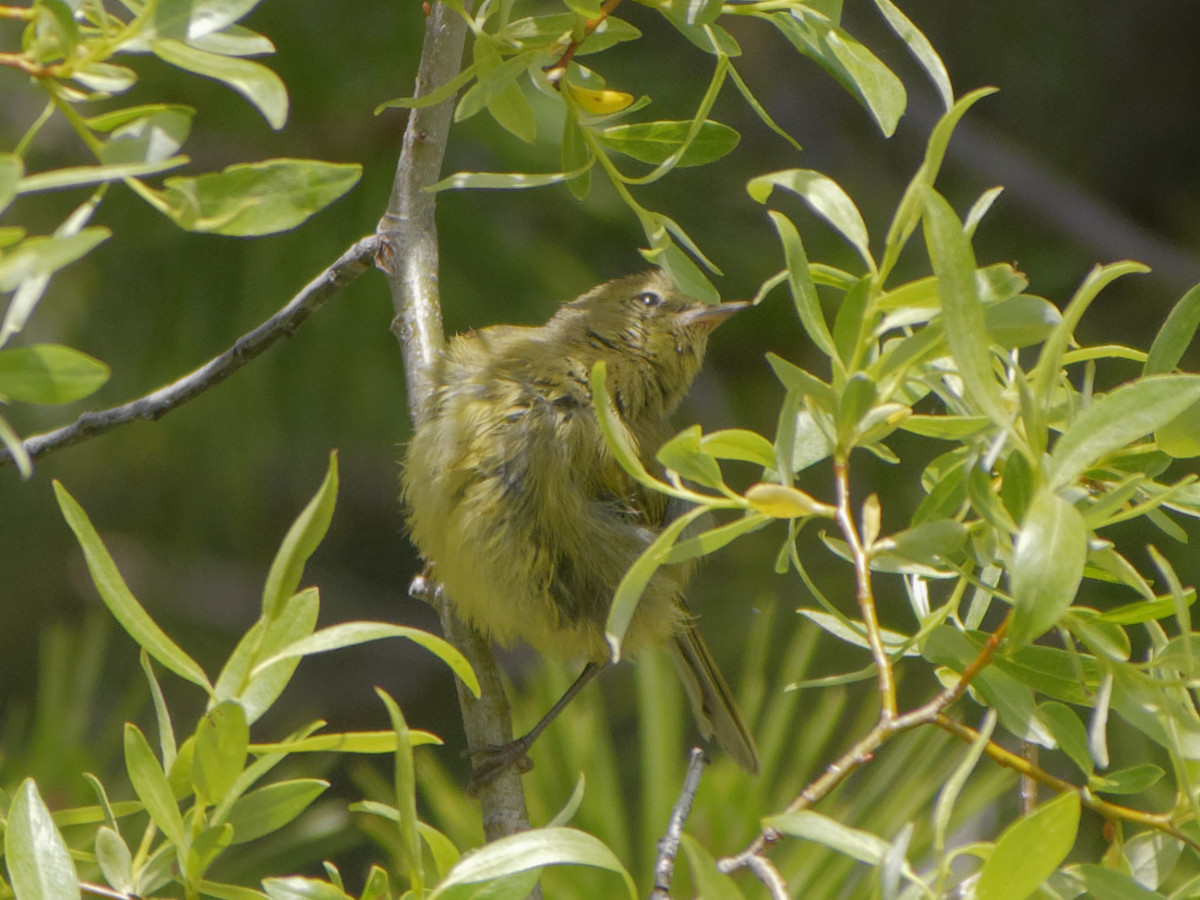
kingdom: Animalia
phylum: Chordata
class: Aves
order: Passeriformes
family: Parulidae
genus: Leiothlypis
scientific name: Leiothlypis celata
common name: Orange-crowned warbler
